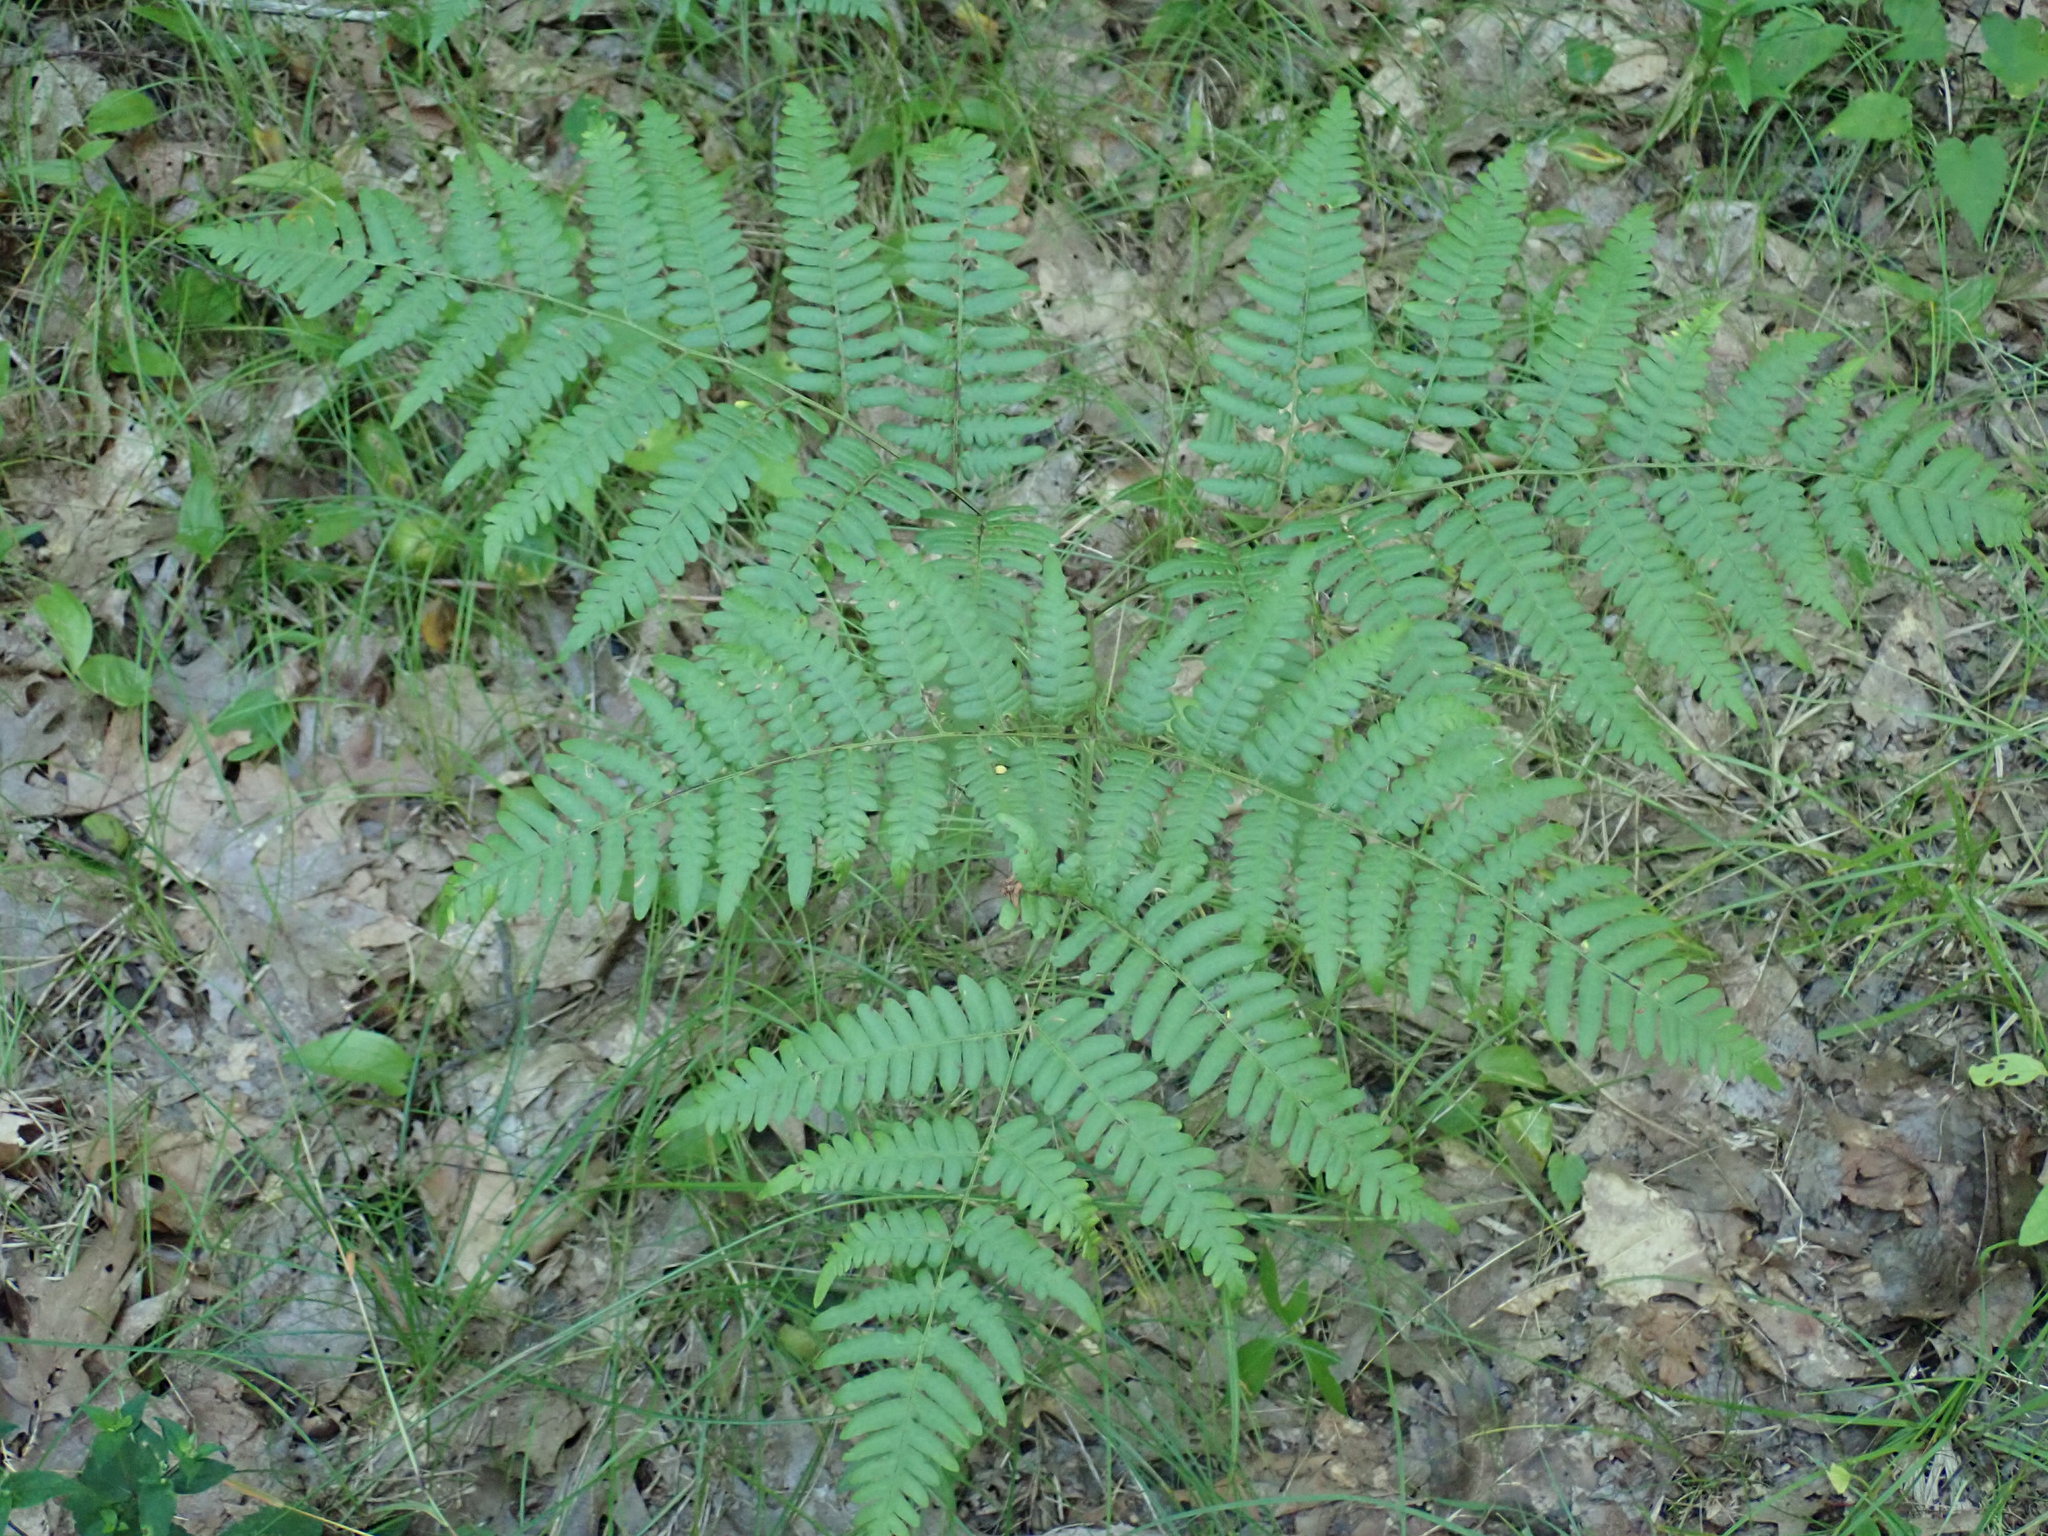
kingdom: Plantae
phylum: Tracheophyta
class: Polypodiopsida
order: Polypodiales
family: Dennstaedtiaceae
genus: Pteridium
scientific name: Pteridium aquilinum
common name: Bracken
